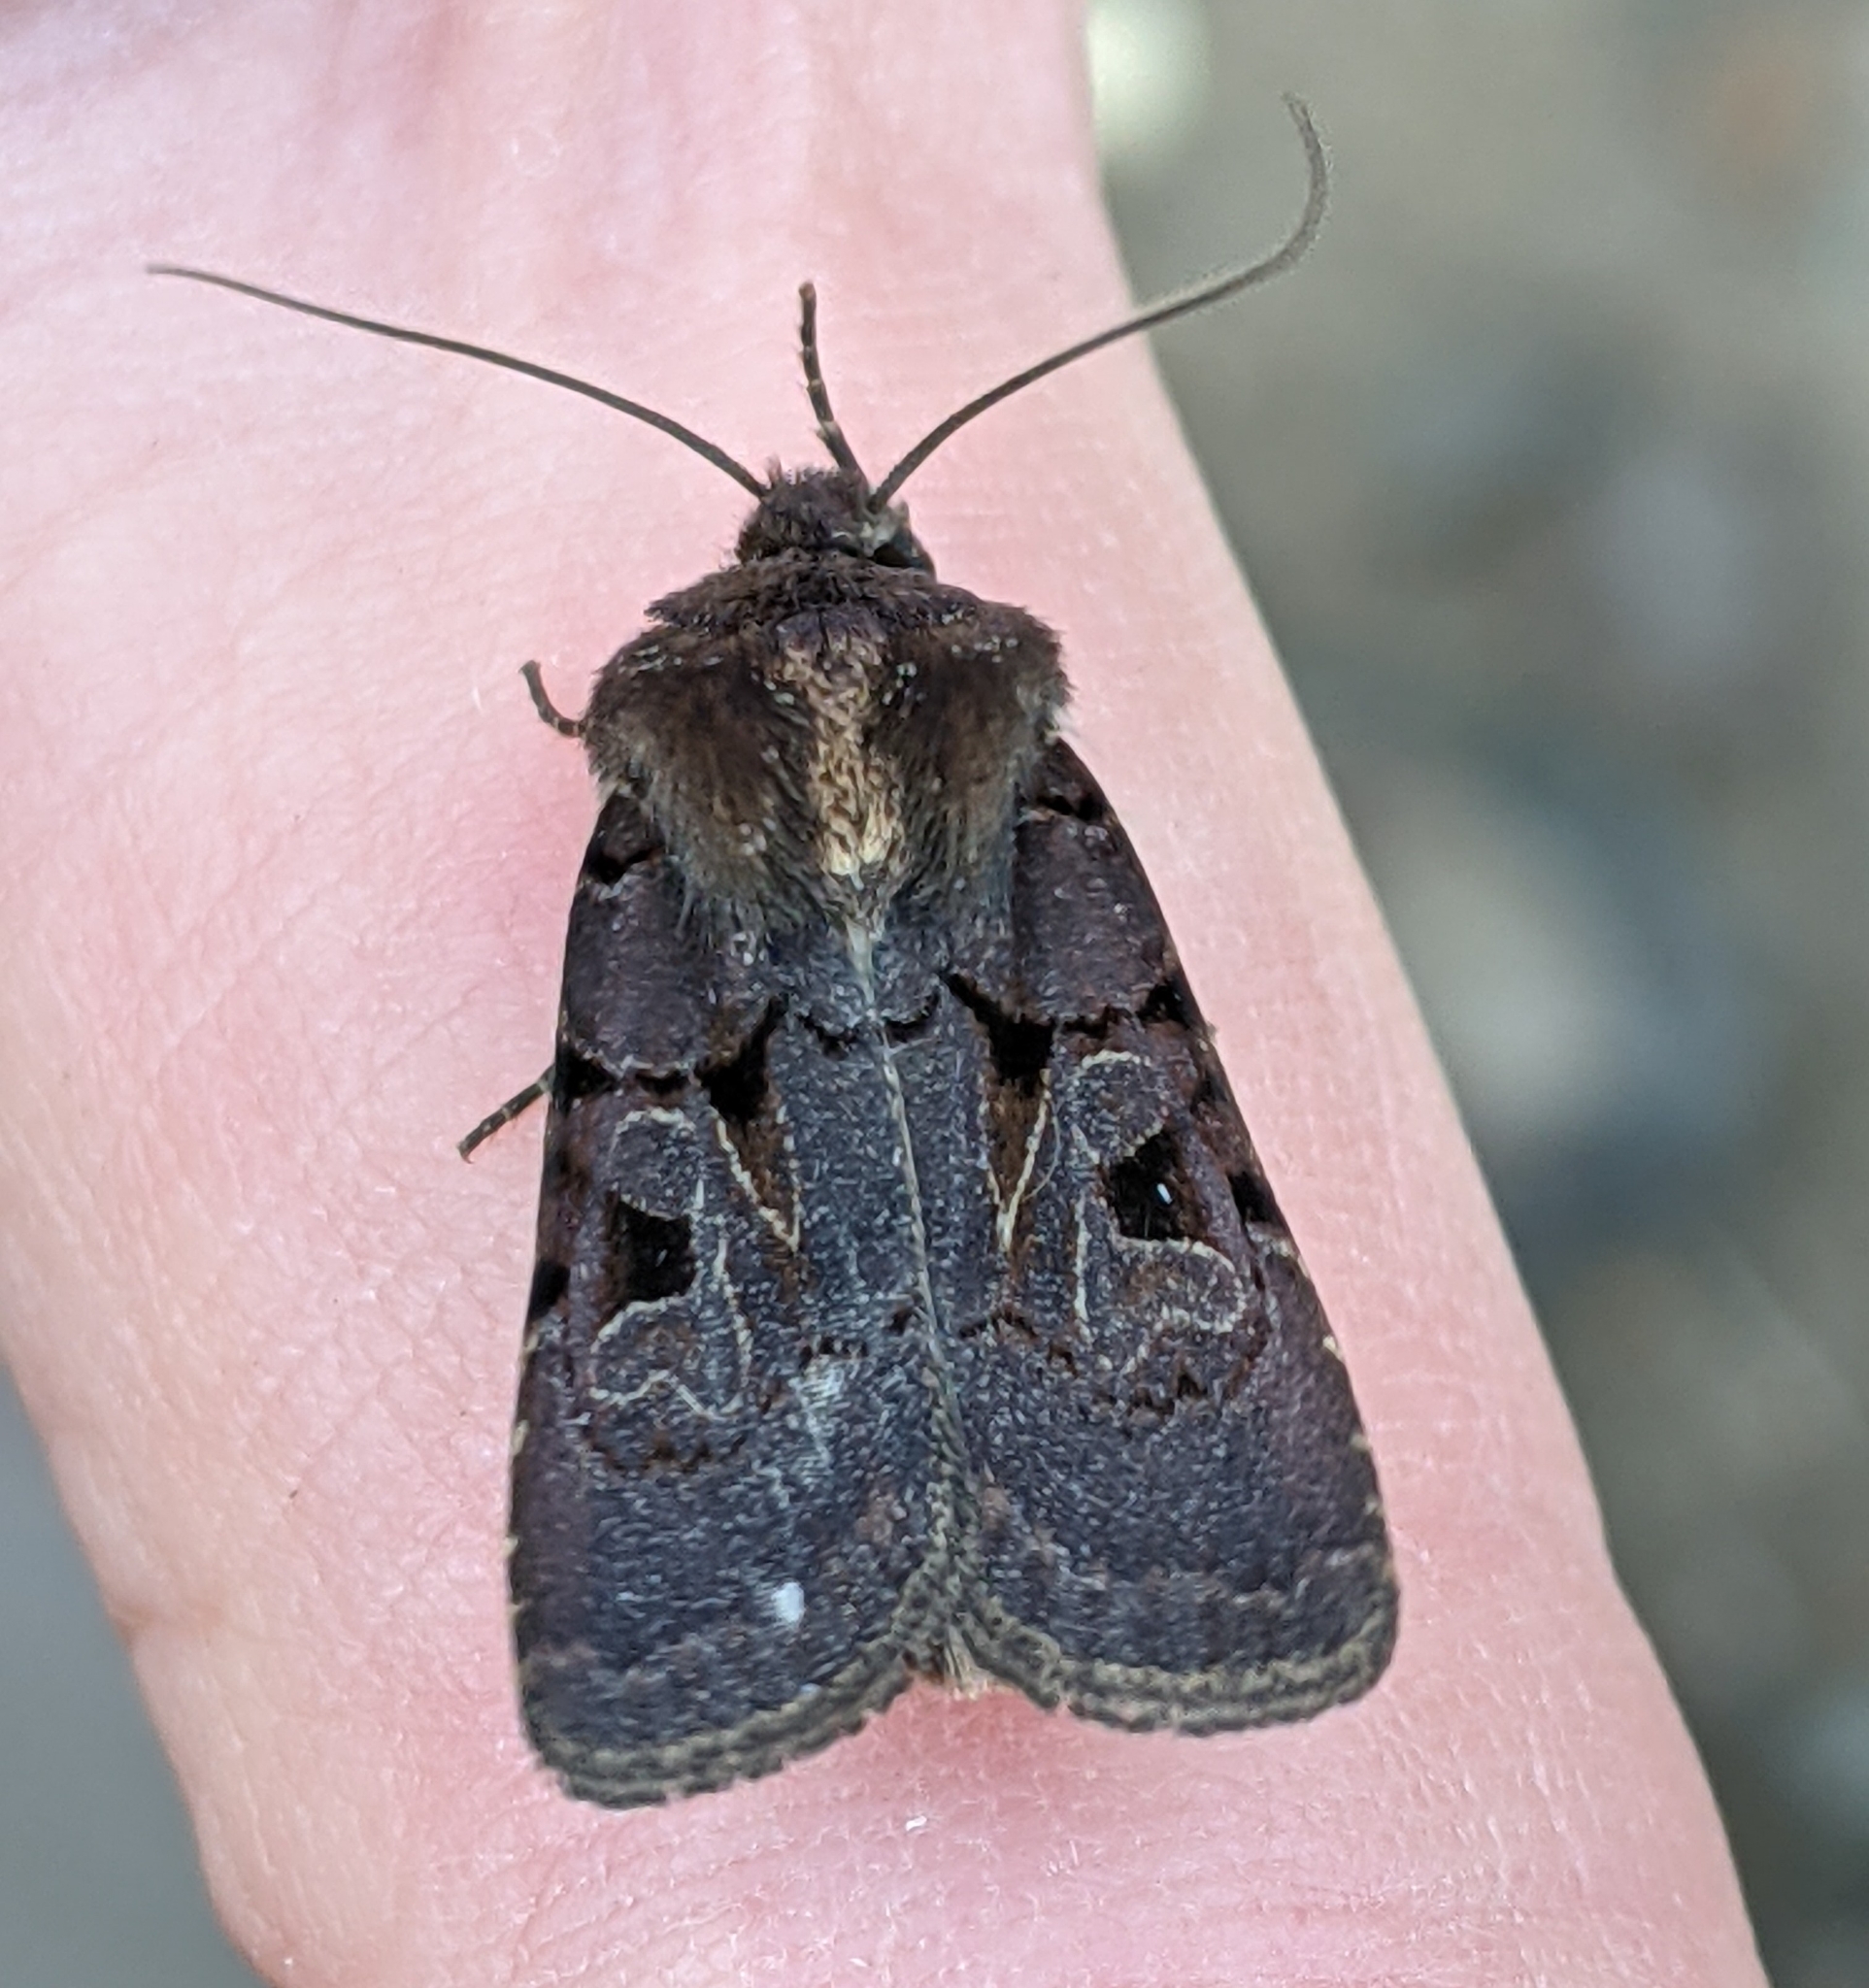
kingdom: Animalia
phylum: Arthropoda
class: Insecta
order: Lepidoptera
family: Noctuidae
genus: Chersotis
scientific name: Chersotis juncta
